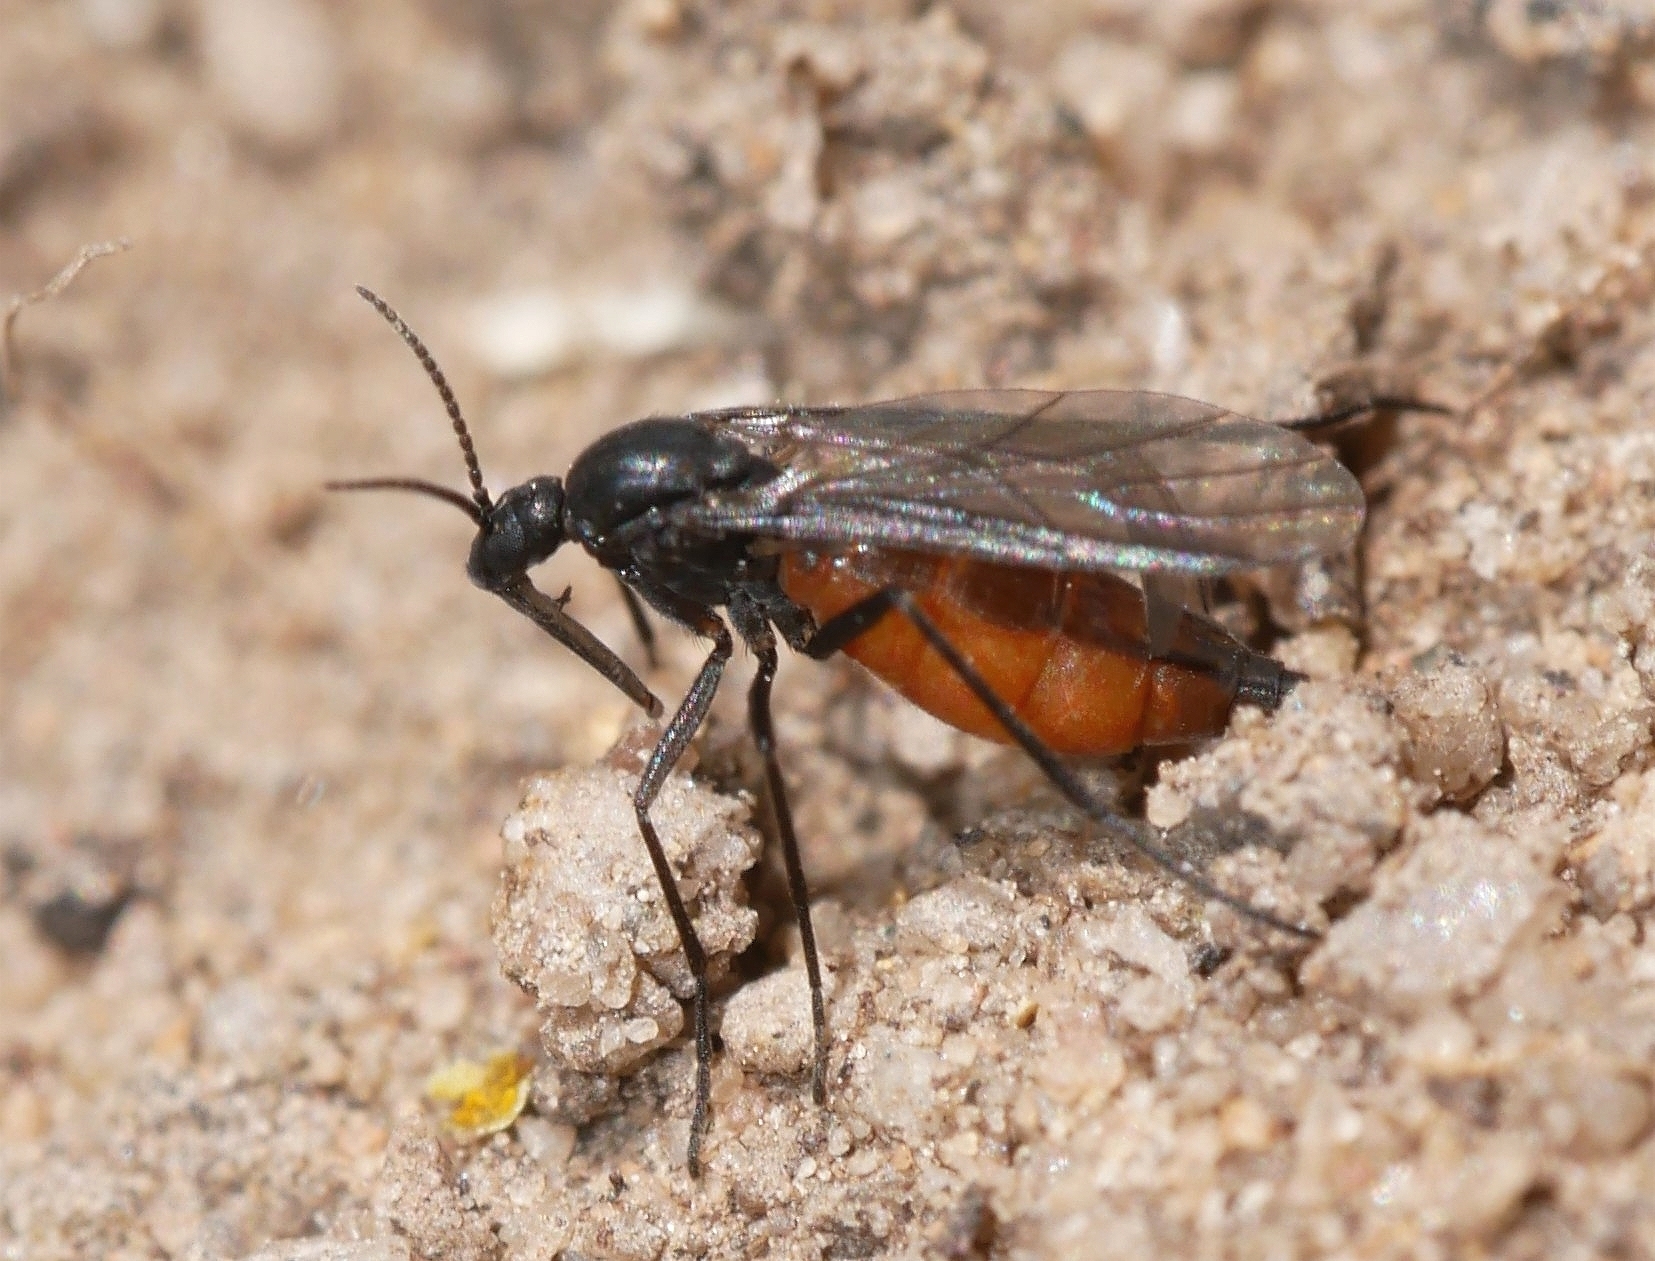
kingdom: Animalia
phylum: Arthropoda
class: Insecta
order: Diptera
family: Sciaridae
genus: Eugnoriste
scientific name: Eugnoriste occidentalis
